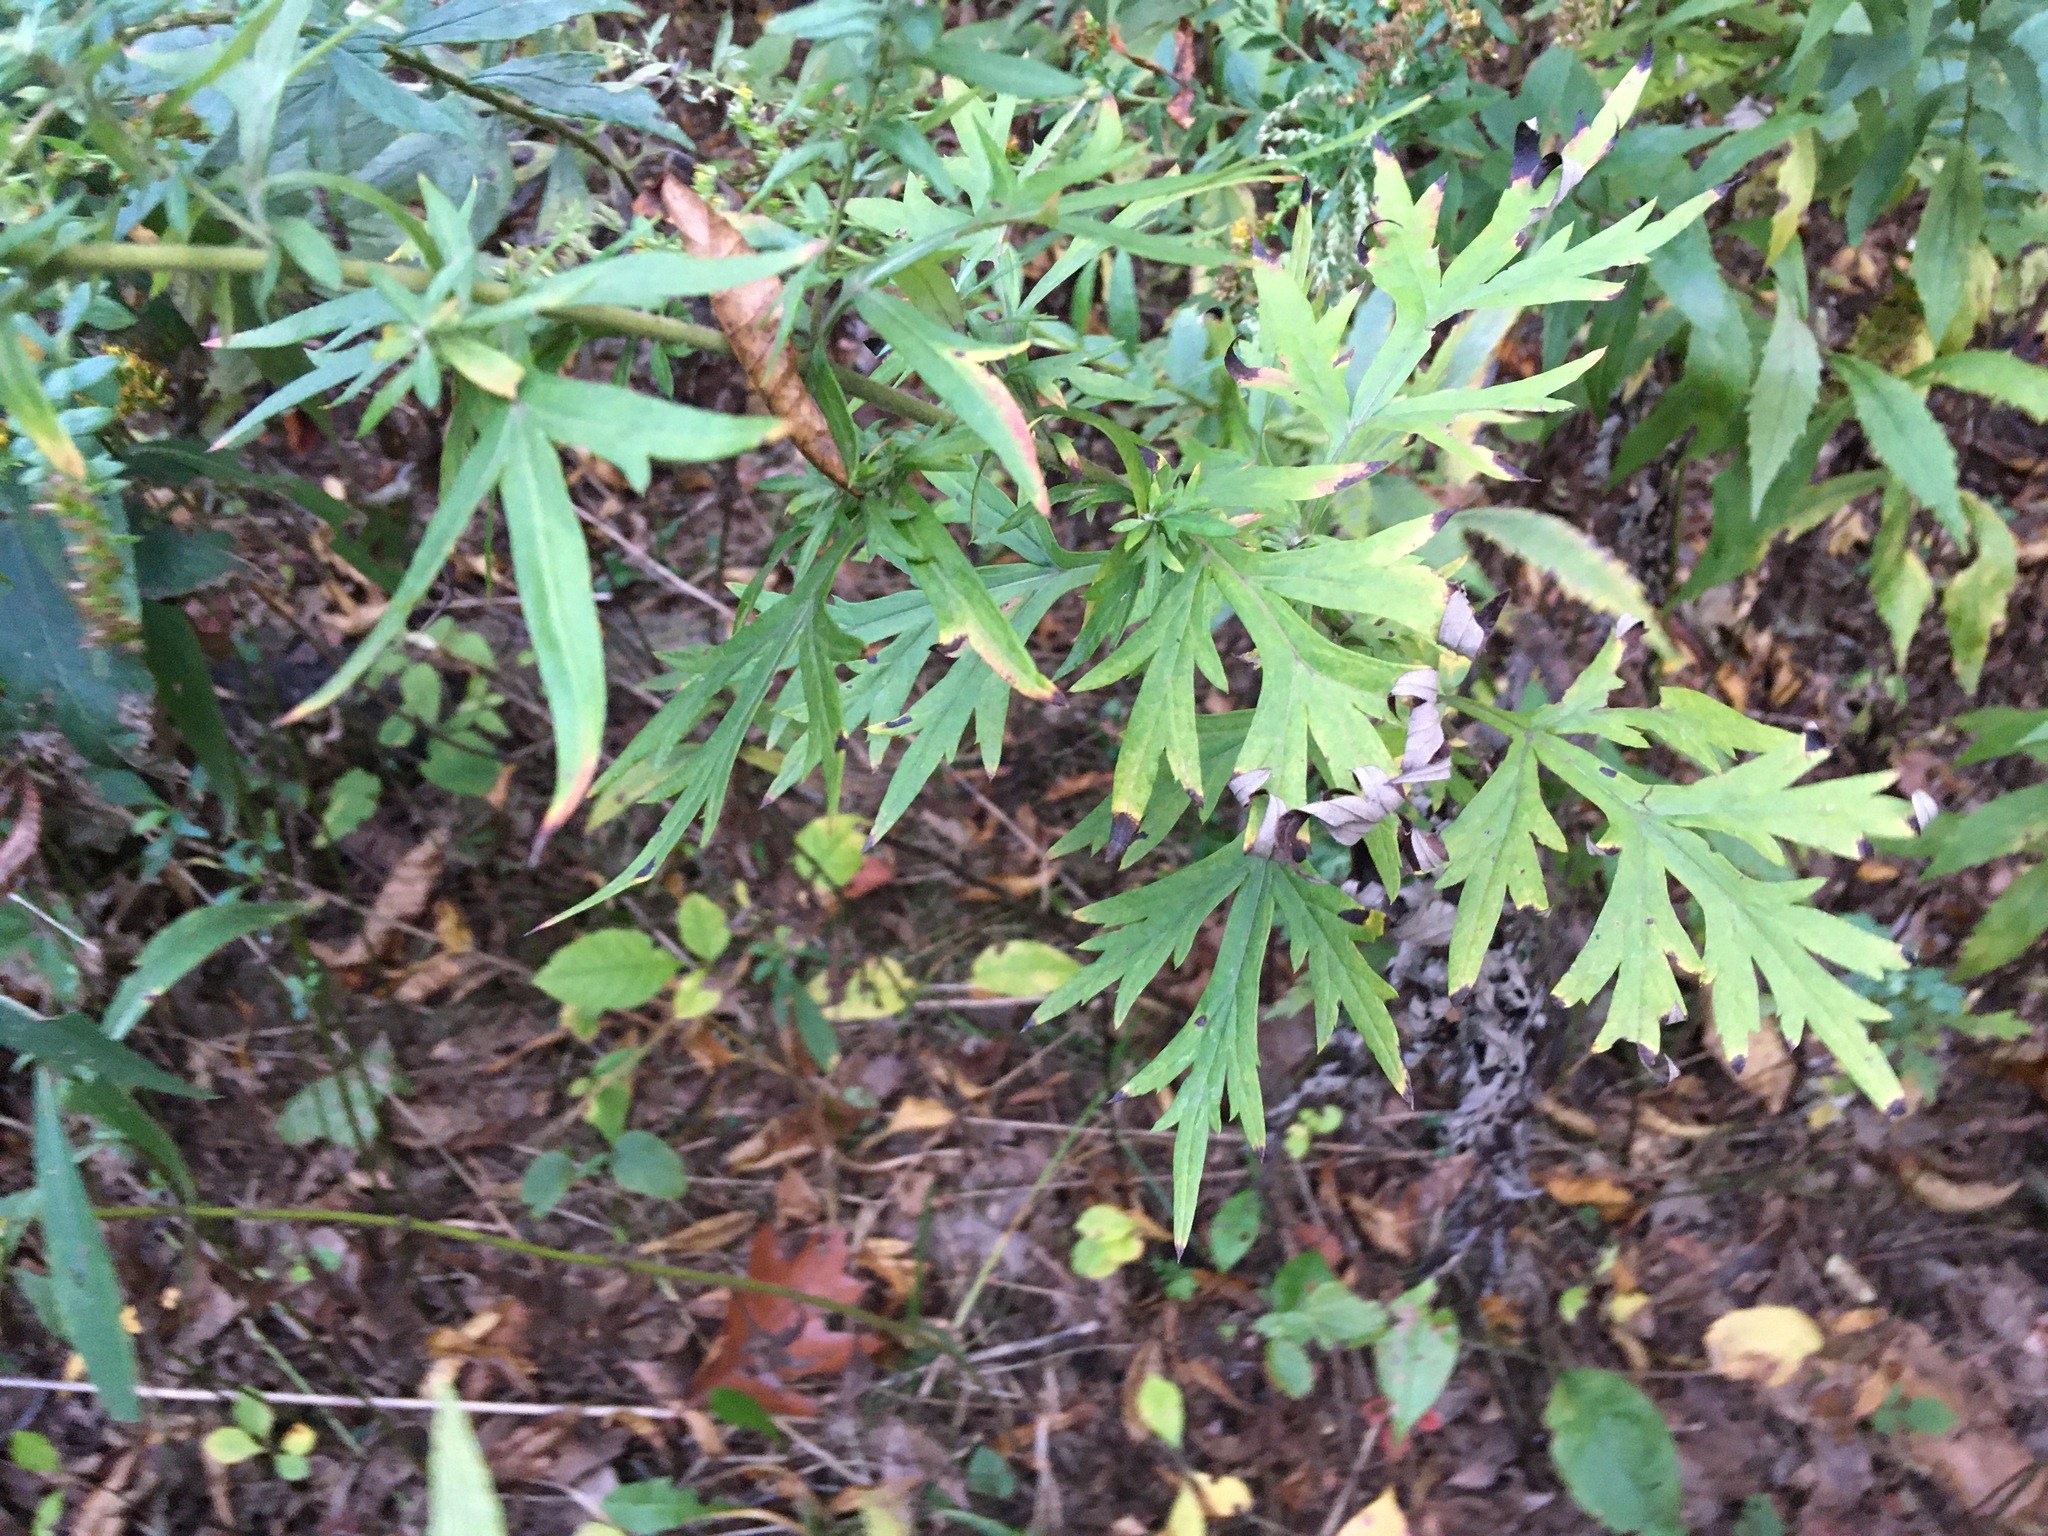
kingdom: Plantae
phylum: Tracheophyta
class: Magnoliopsida
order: Asterales
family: Asteraceae
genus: Artemisia
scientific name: Artemisia vulgaris
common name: Mugwort
